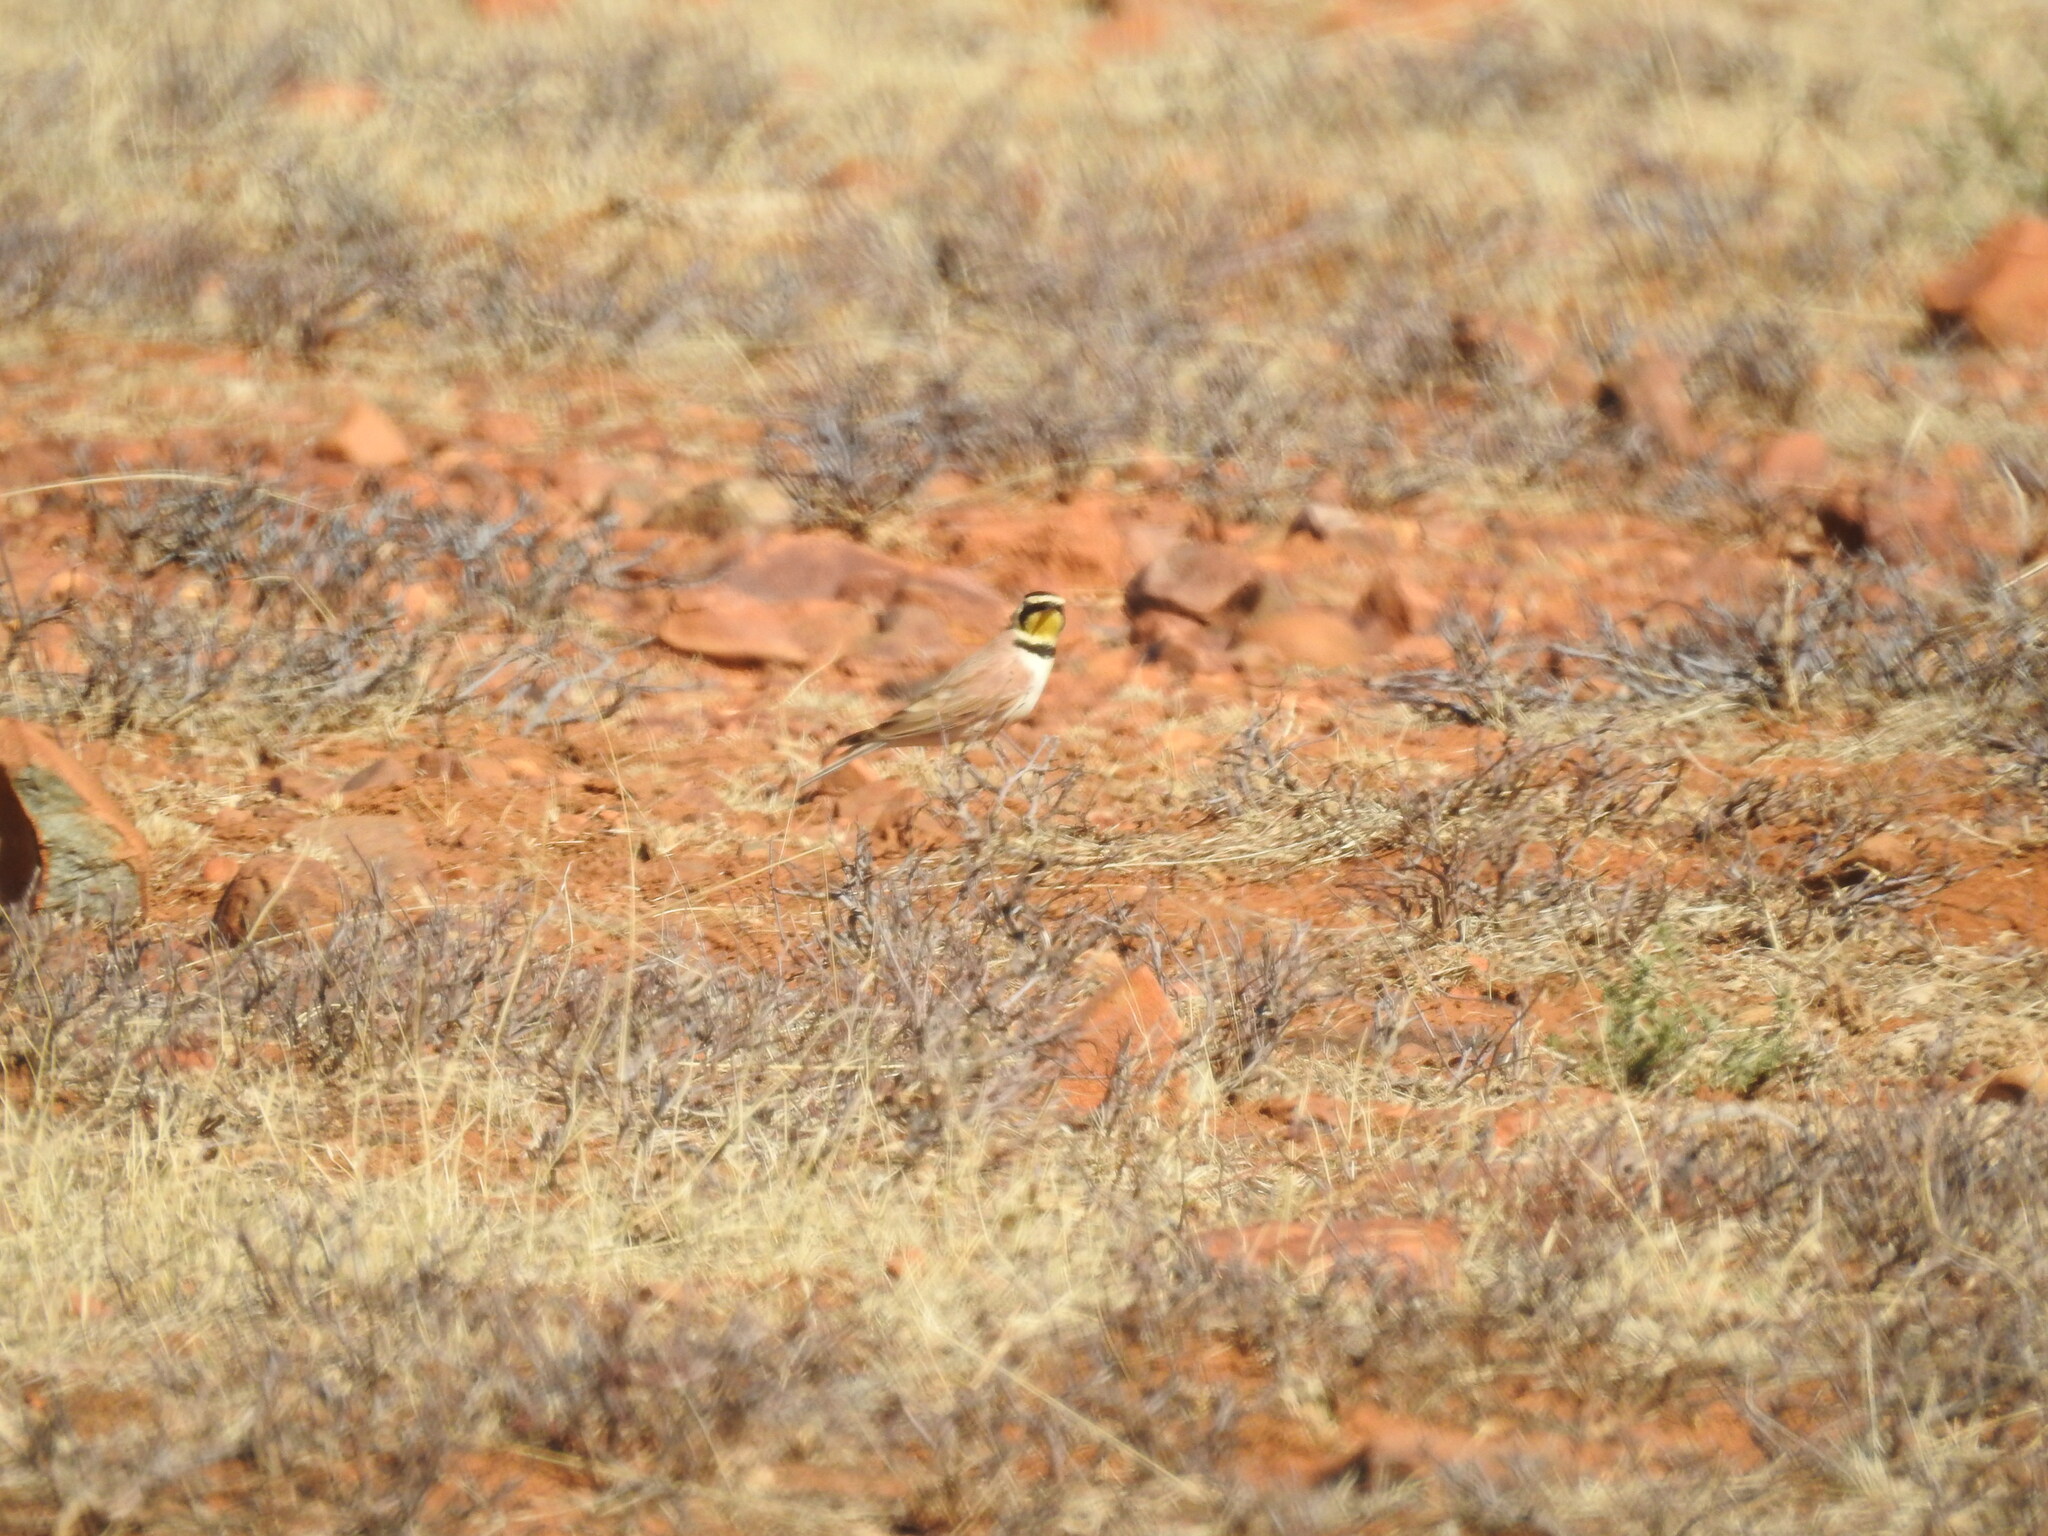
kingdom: Animalia
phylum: Chordata
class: Aves
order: Passeriformes
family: Alaudidae
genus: Eremophila
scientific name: Eremophila alpestris
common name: Horned lark
